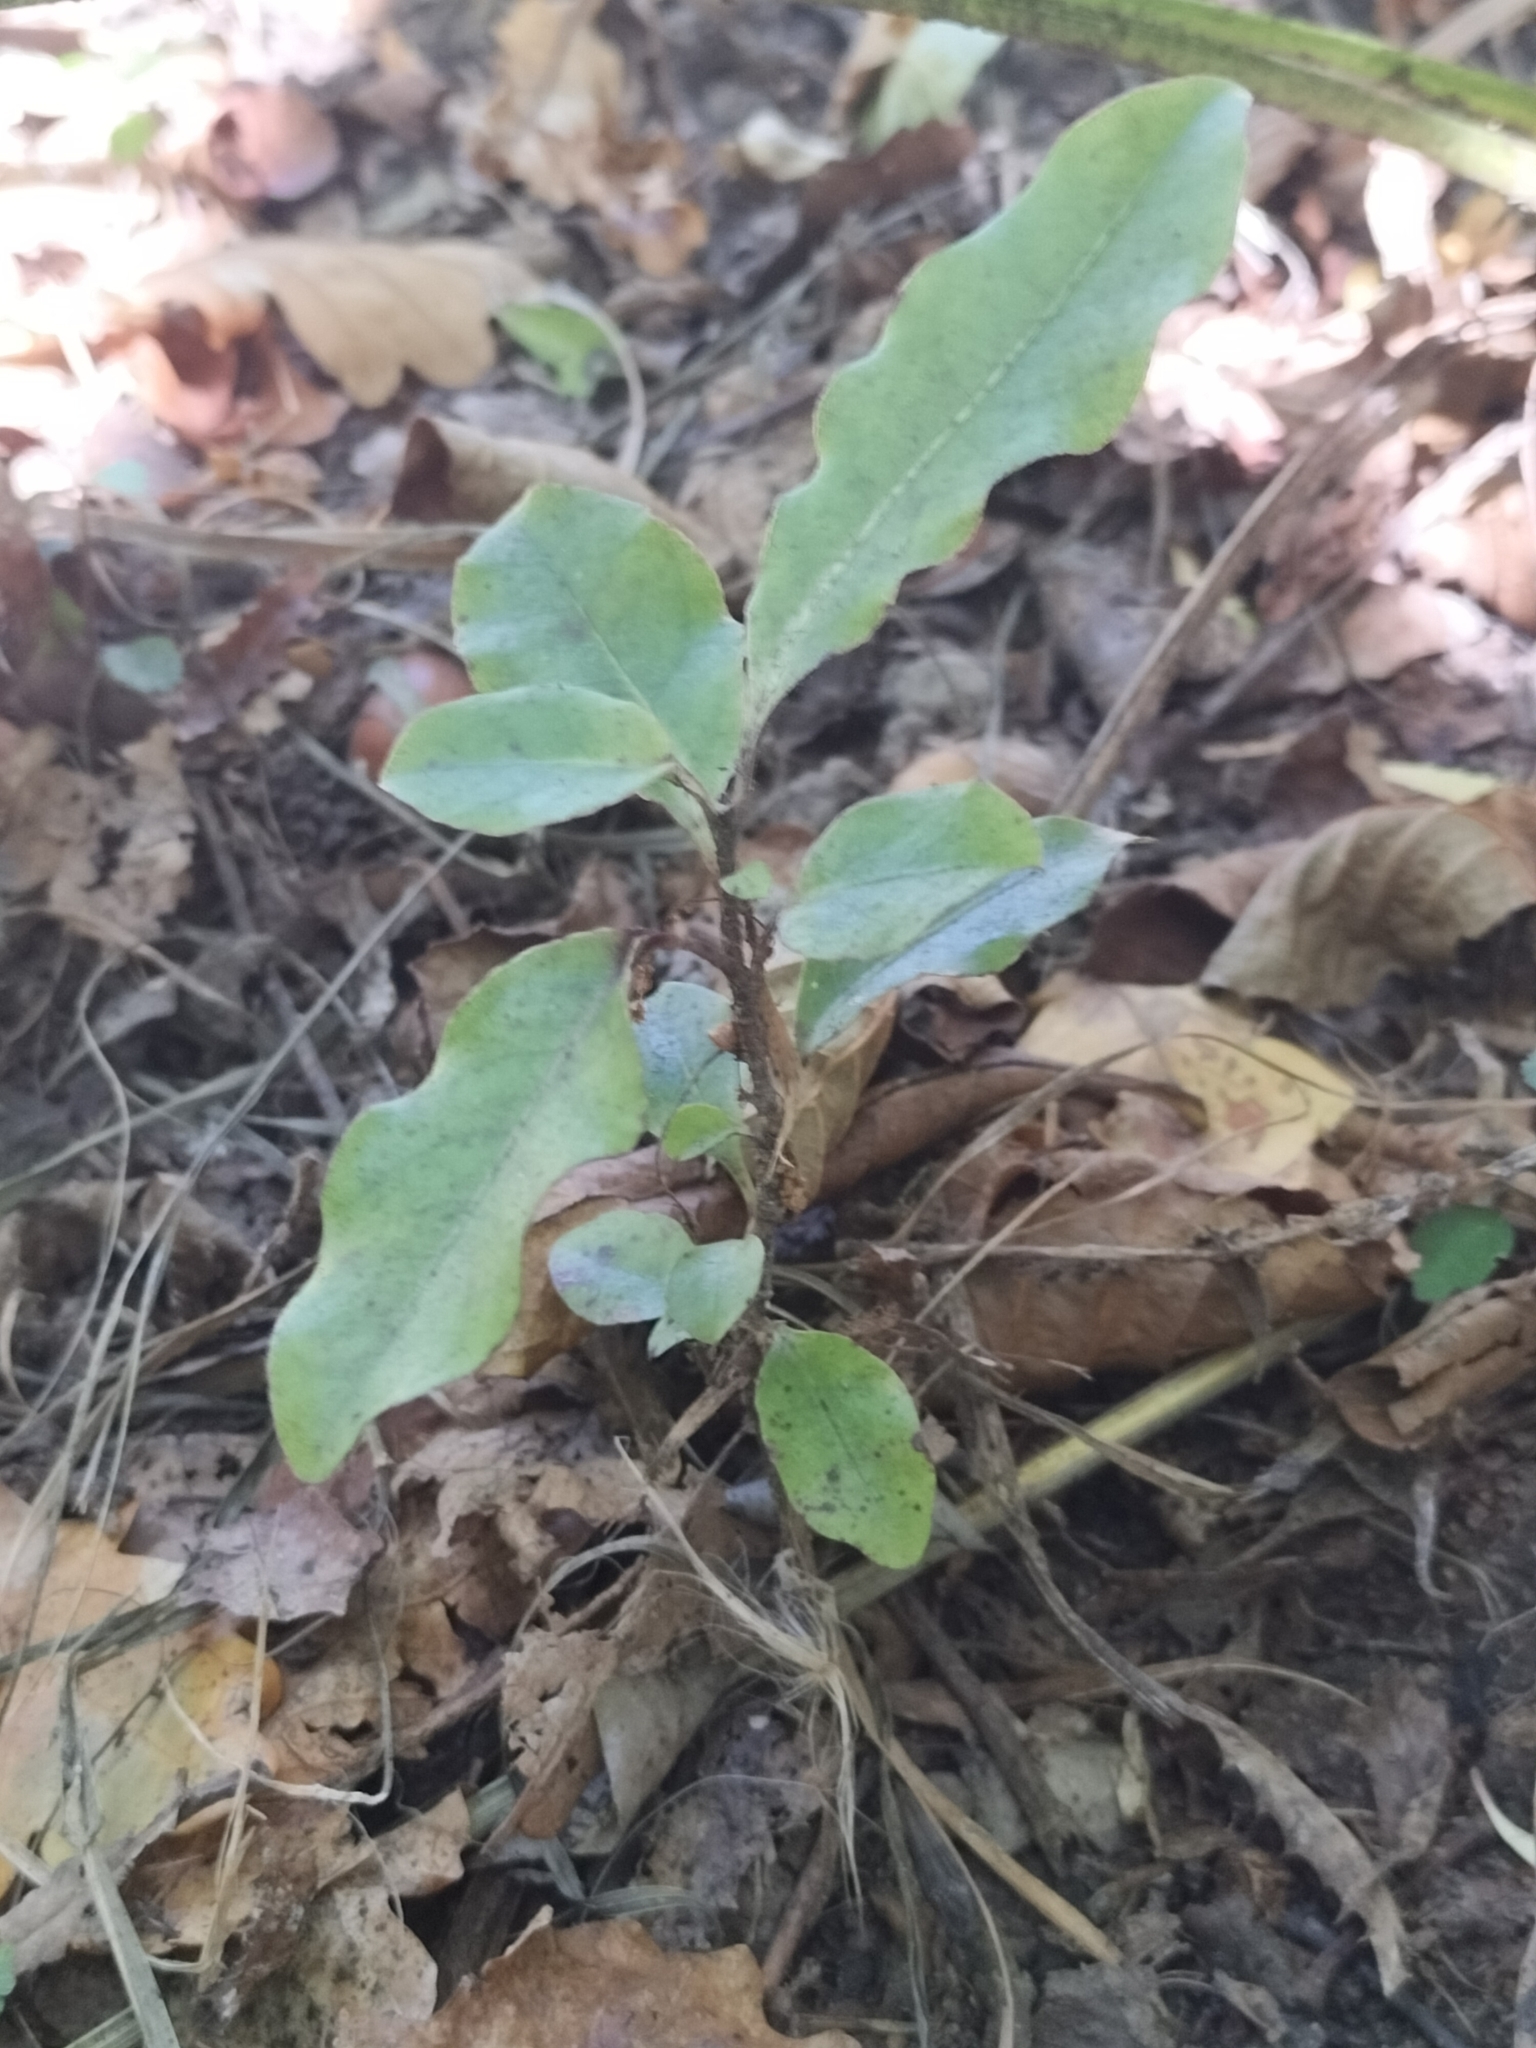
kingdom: Plantae
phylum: Tracheophyta
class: Magnoliopsida
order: Apiales
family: Pittosporaceae
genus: Pittosporum
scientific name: Pittosporum eugenioides
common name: Lemonwood
